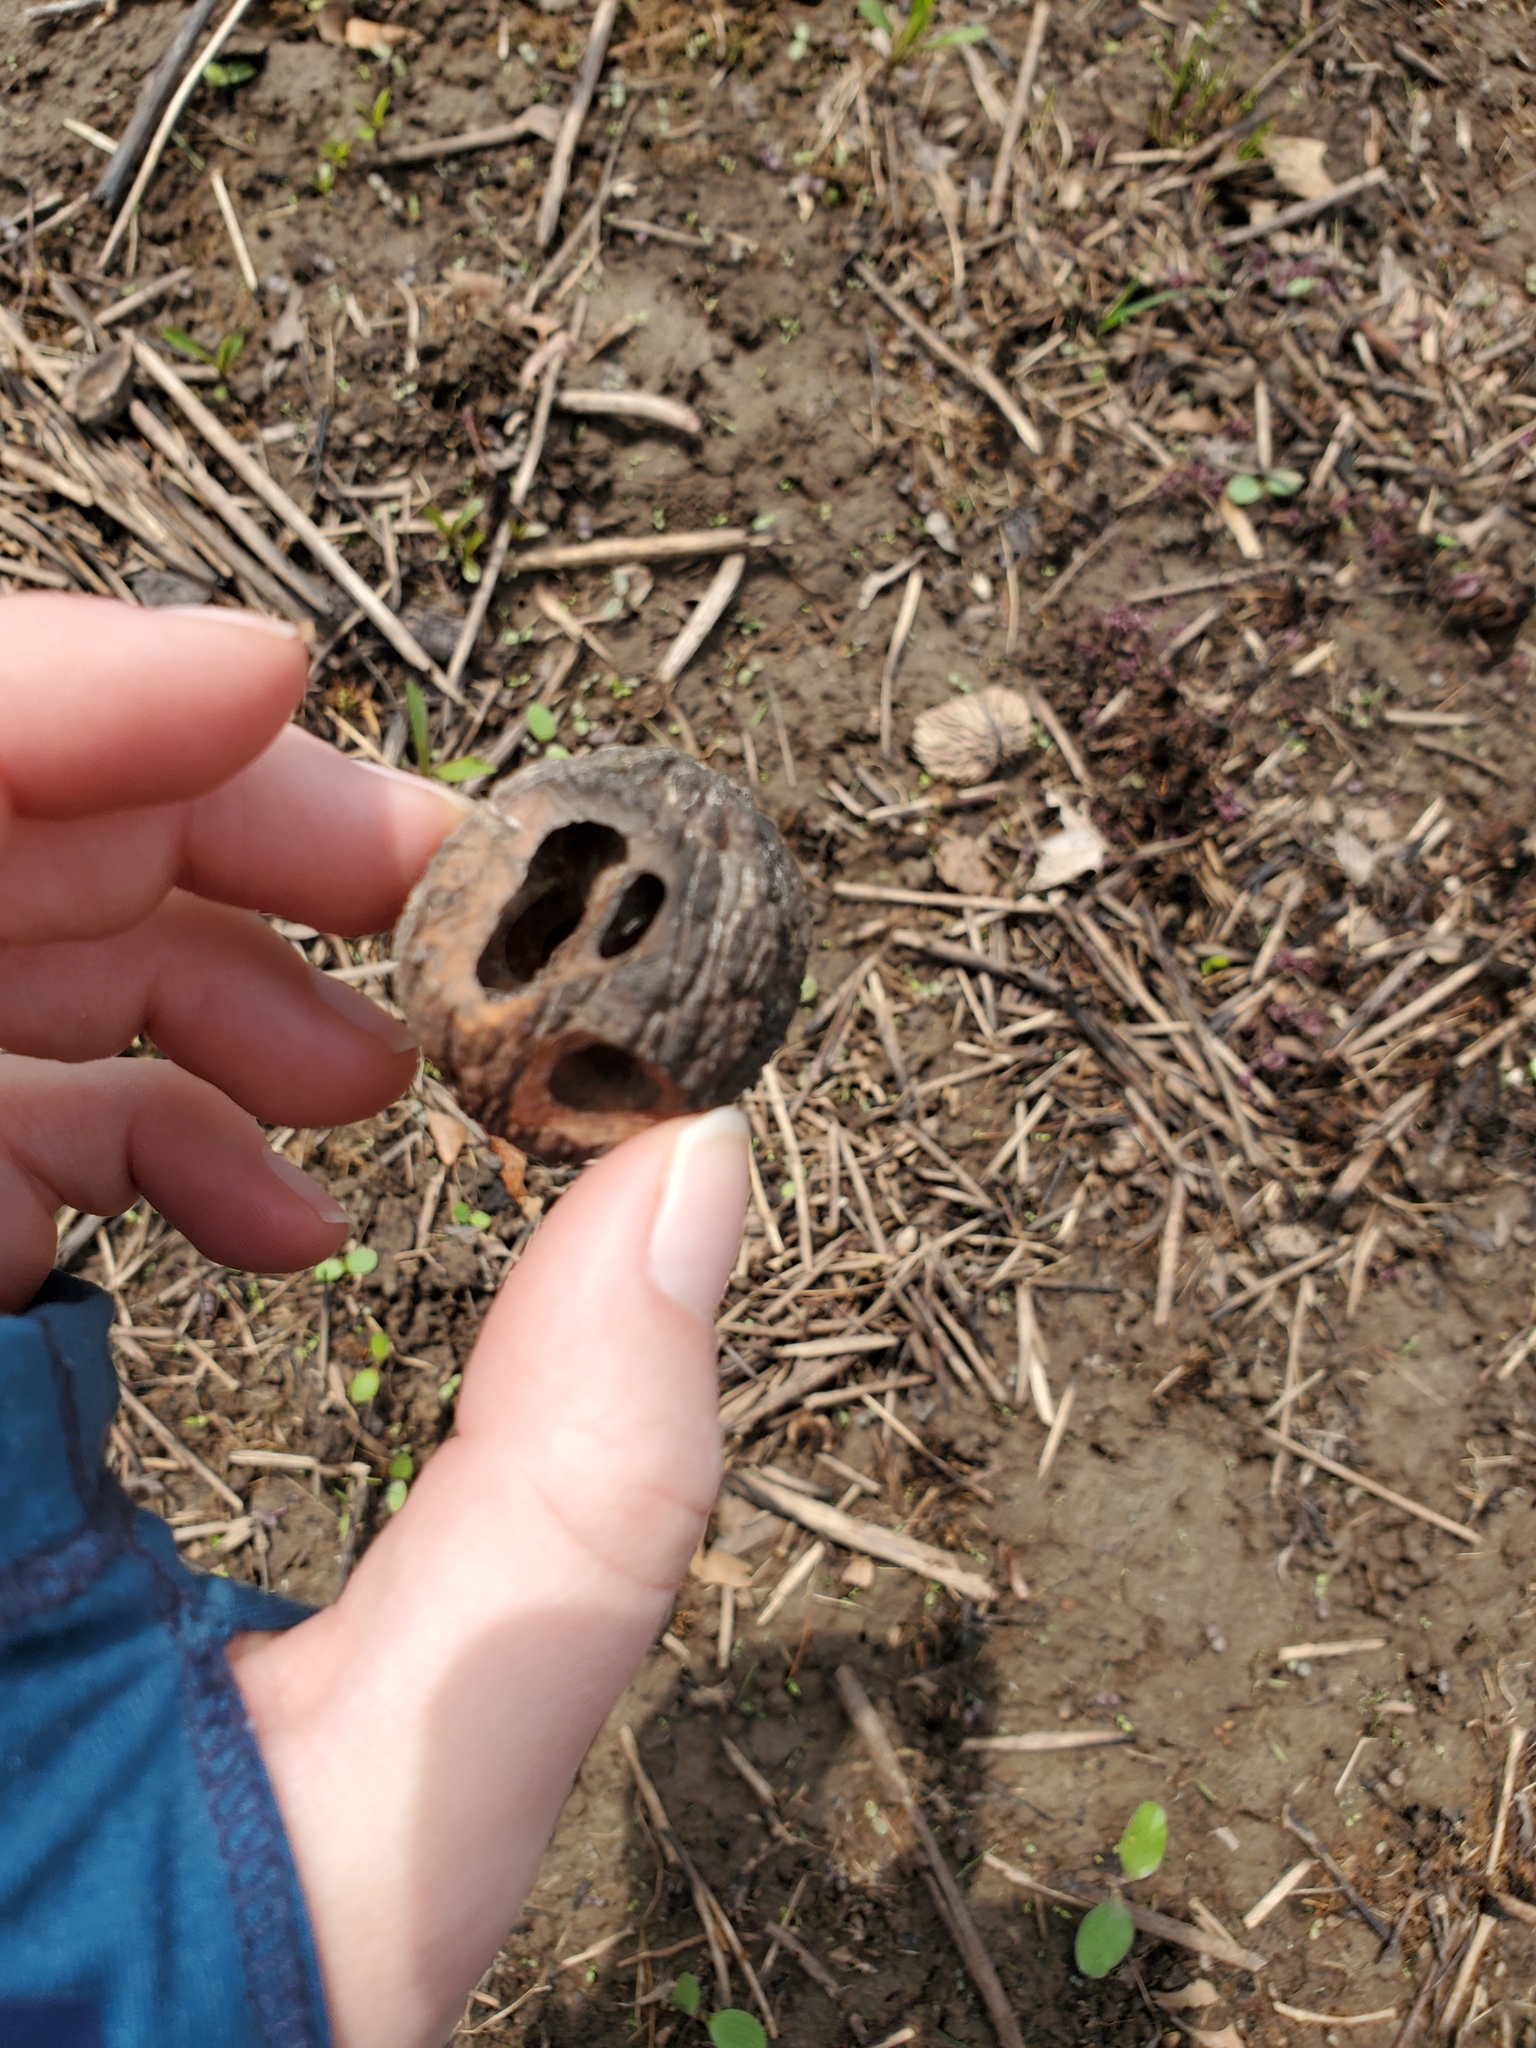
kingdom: Plantae
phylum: Tracheophyta
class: Magnoliopsida
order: Fagales
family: Juglandaceae
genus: Juglans
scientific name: Juglans nigra
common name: Black walnut
